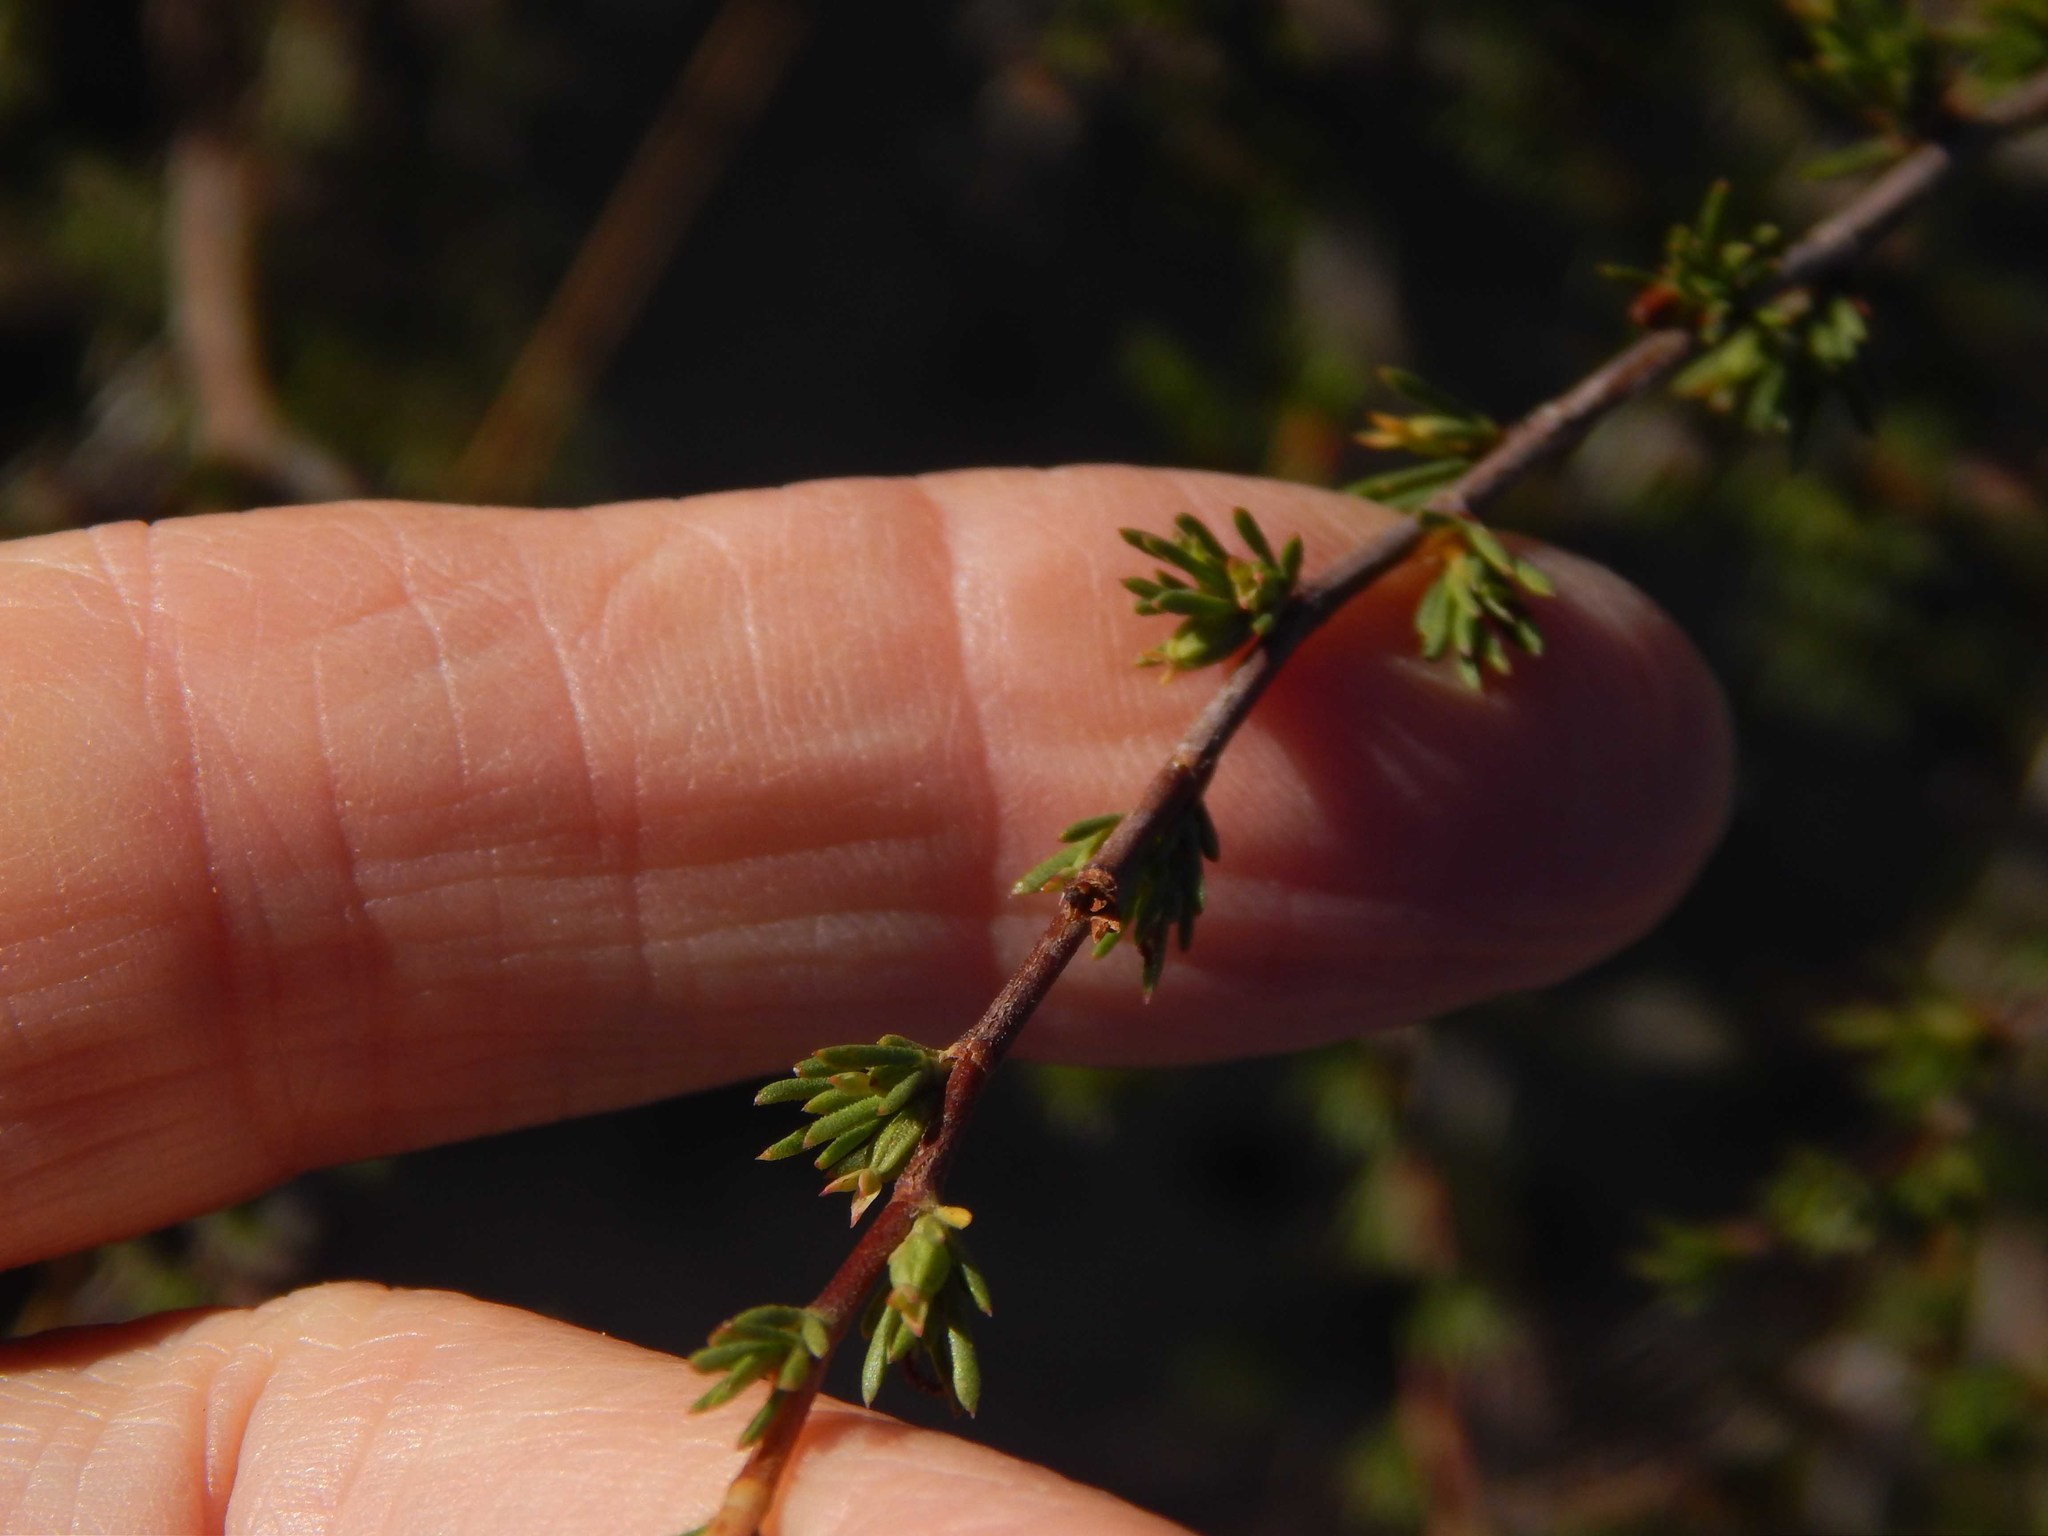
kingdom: Plantae
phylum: Tracheophyta
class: Magnoliopsida
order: Rosales
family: Rosaceae
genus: Cliffortia
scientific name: Cliffortia juniperina
